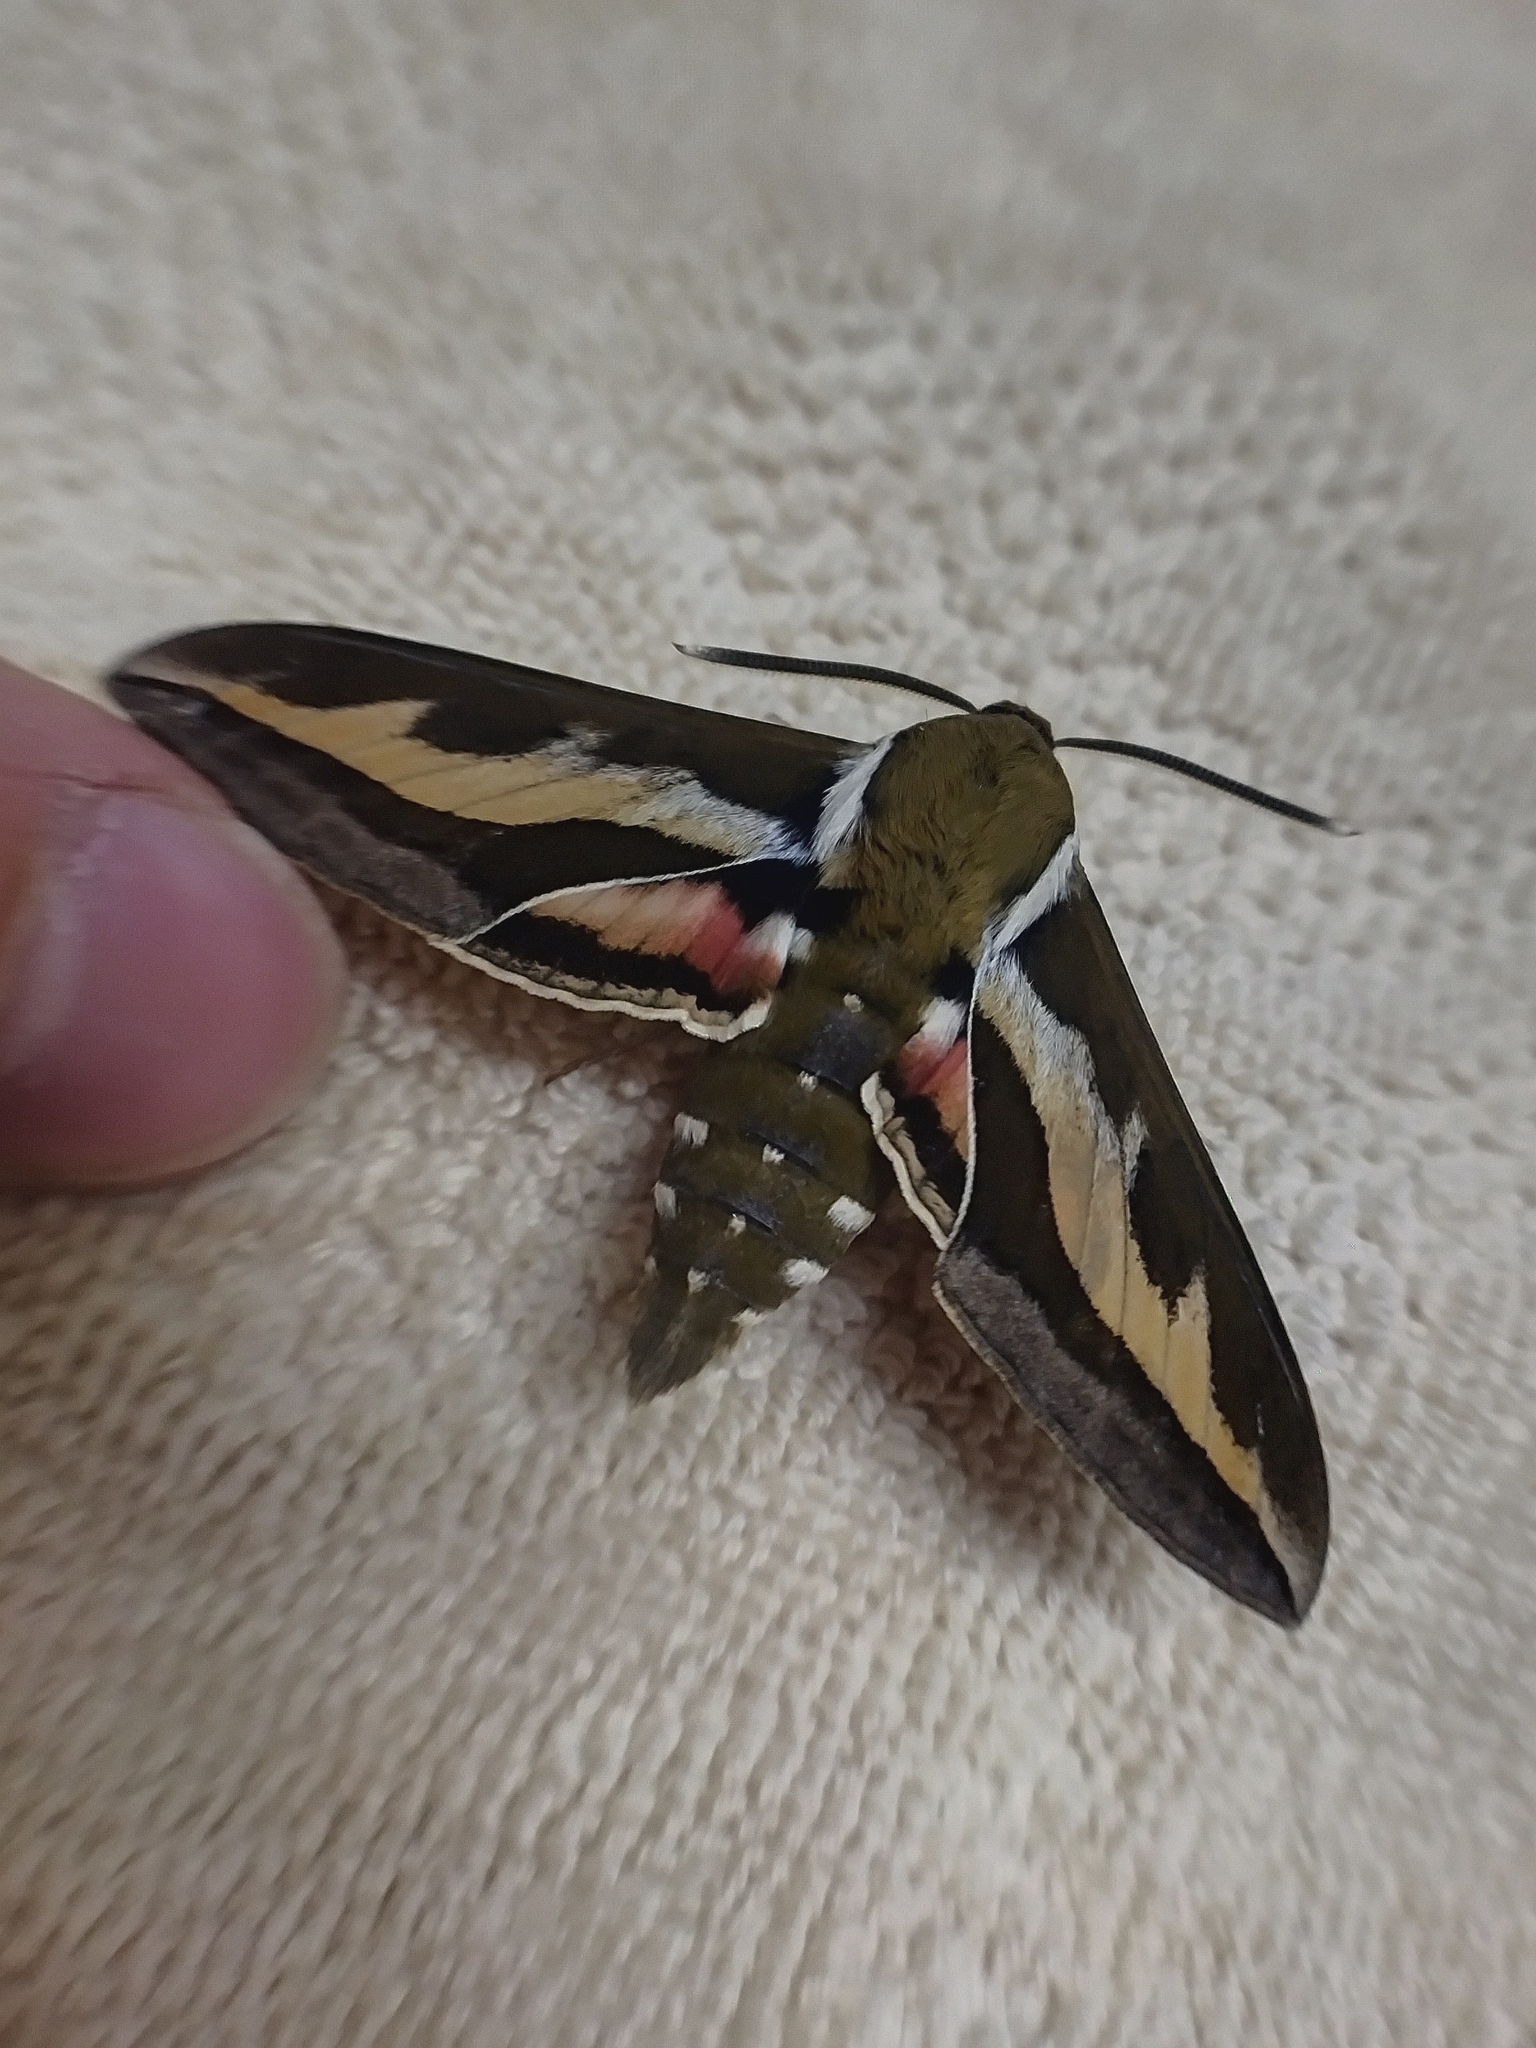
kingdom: Animalia
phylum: Arthropoda
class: Insecta
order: Lepidoptera
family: Sphingidae
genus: Hyles
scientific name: Hyles gallii
